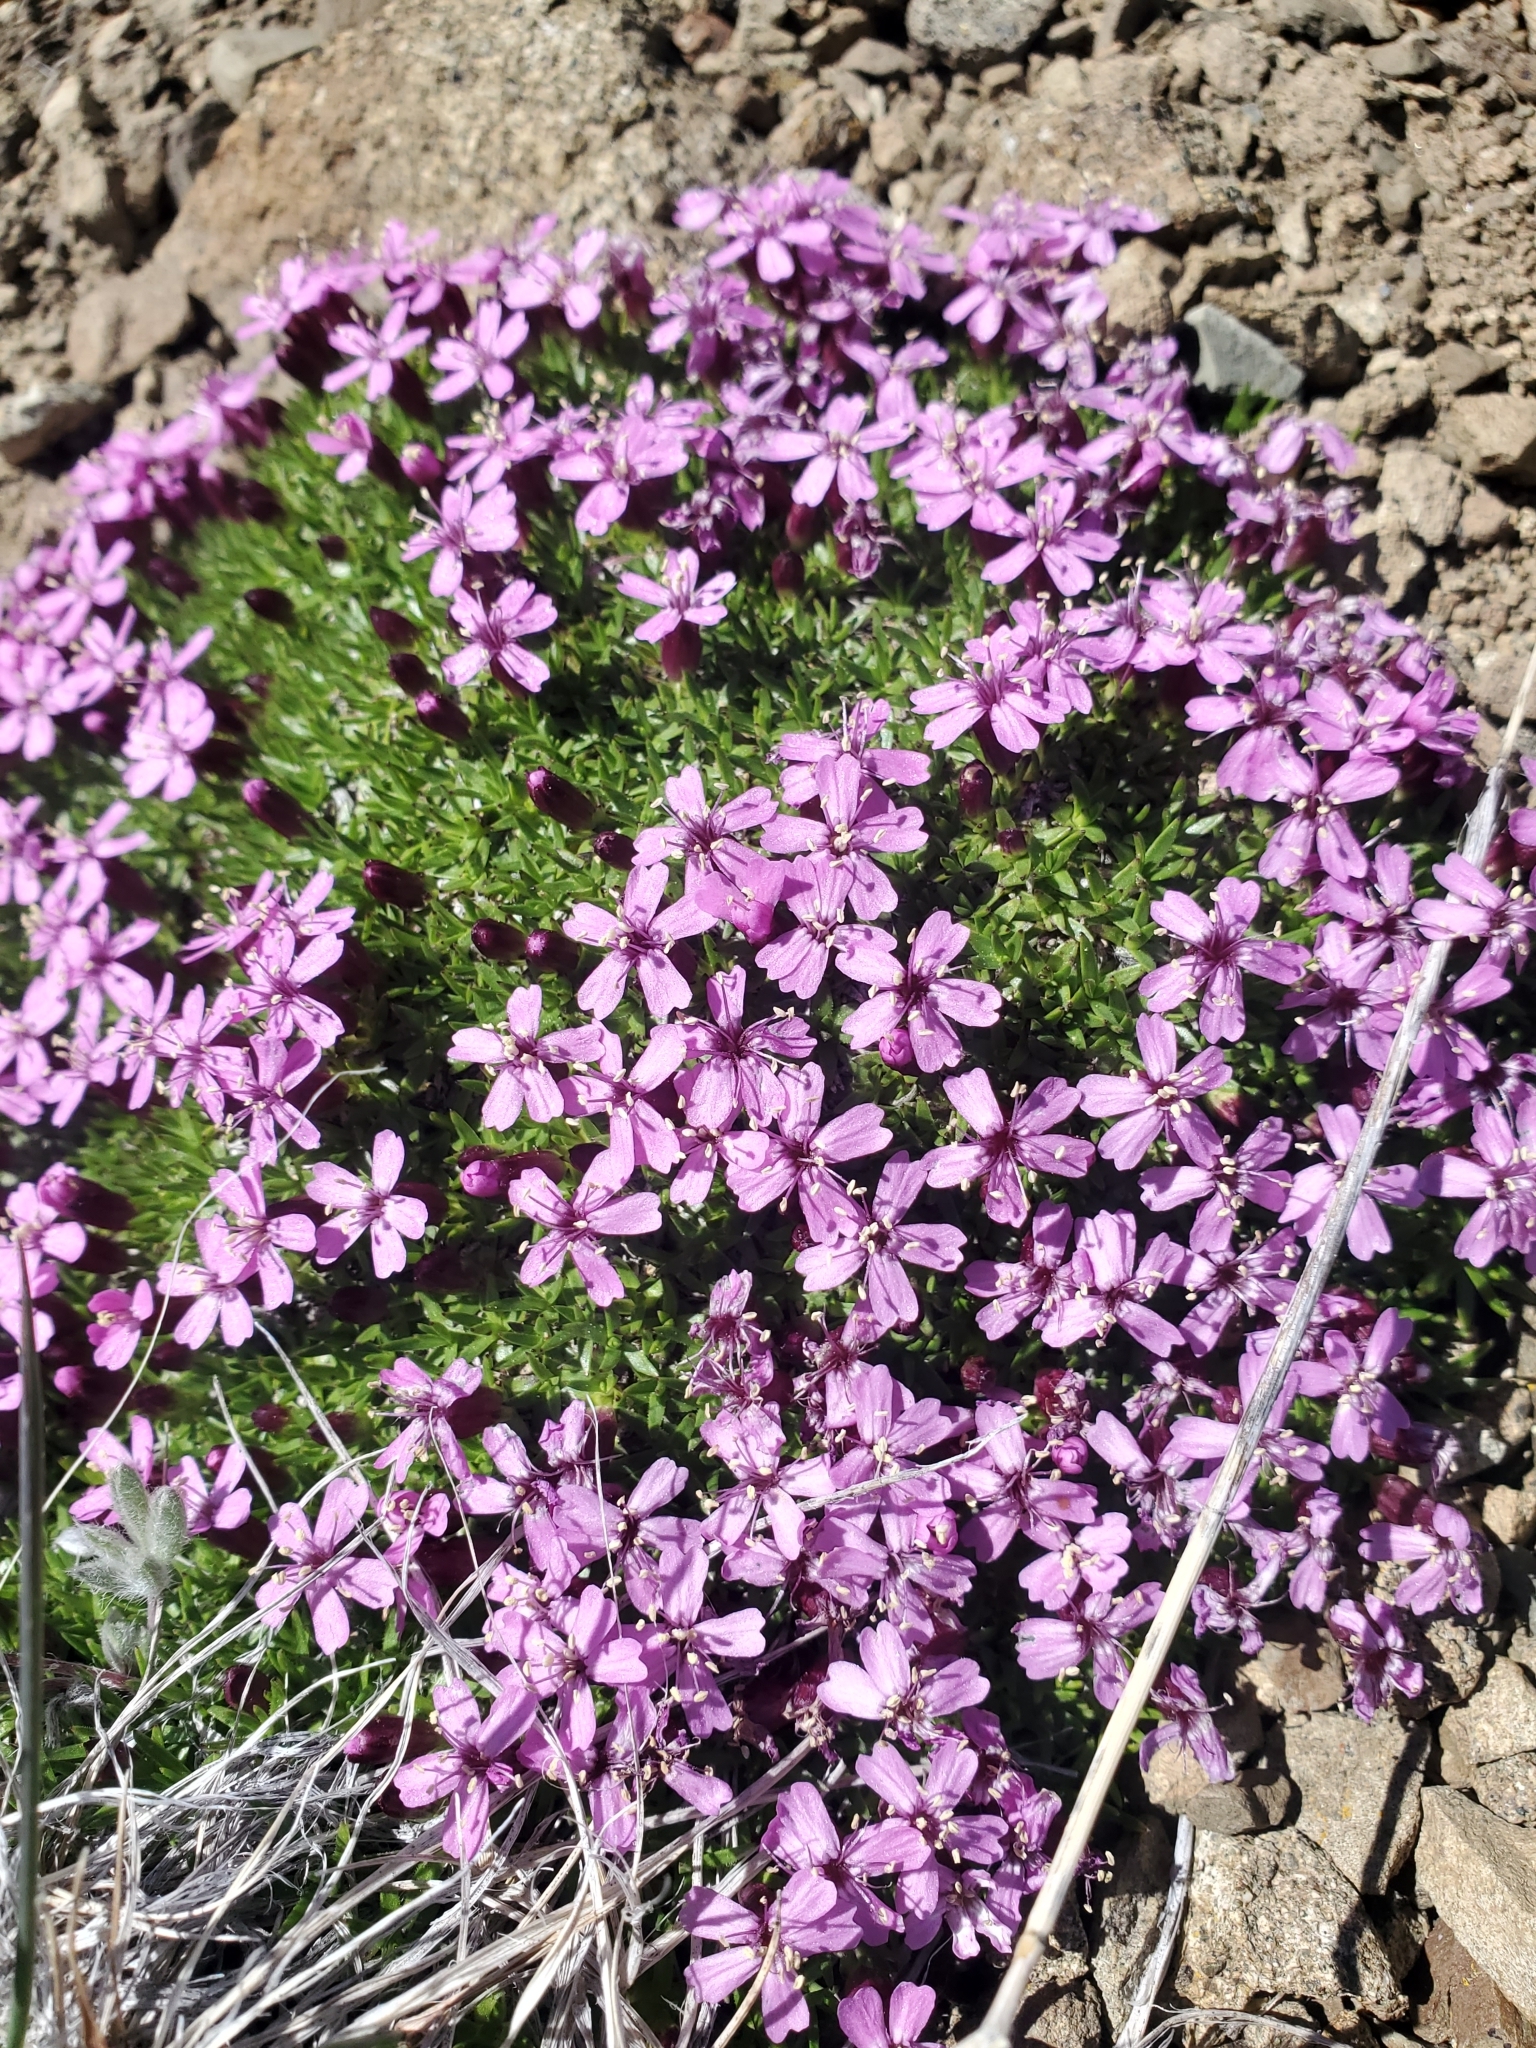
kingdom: Plantae
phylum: Tracheophyta
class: Magnoliopsida
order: Caryophyllales
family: Caryophyllaceae
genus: Silene
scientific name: Silene acaulis
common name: Moss campion
